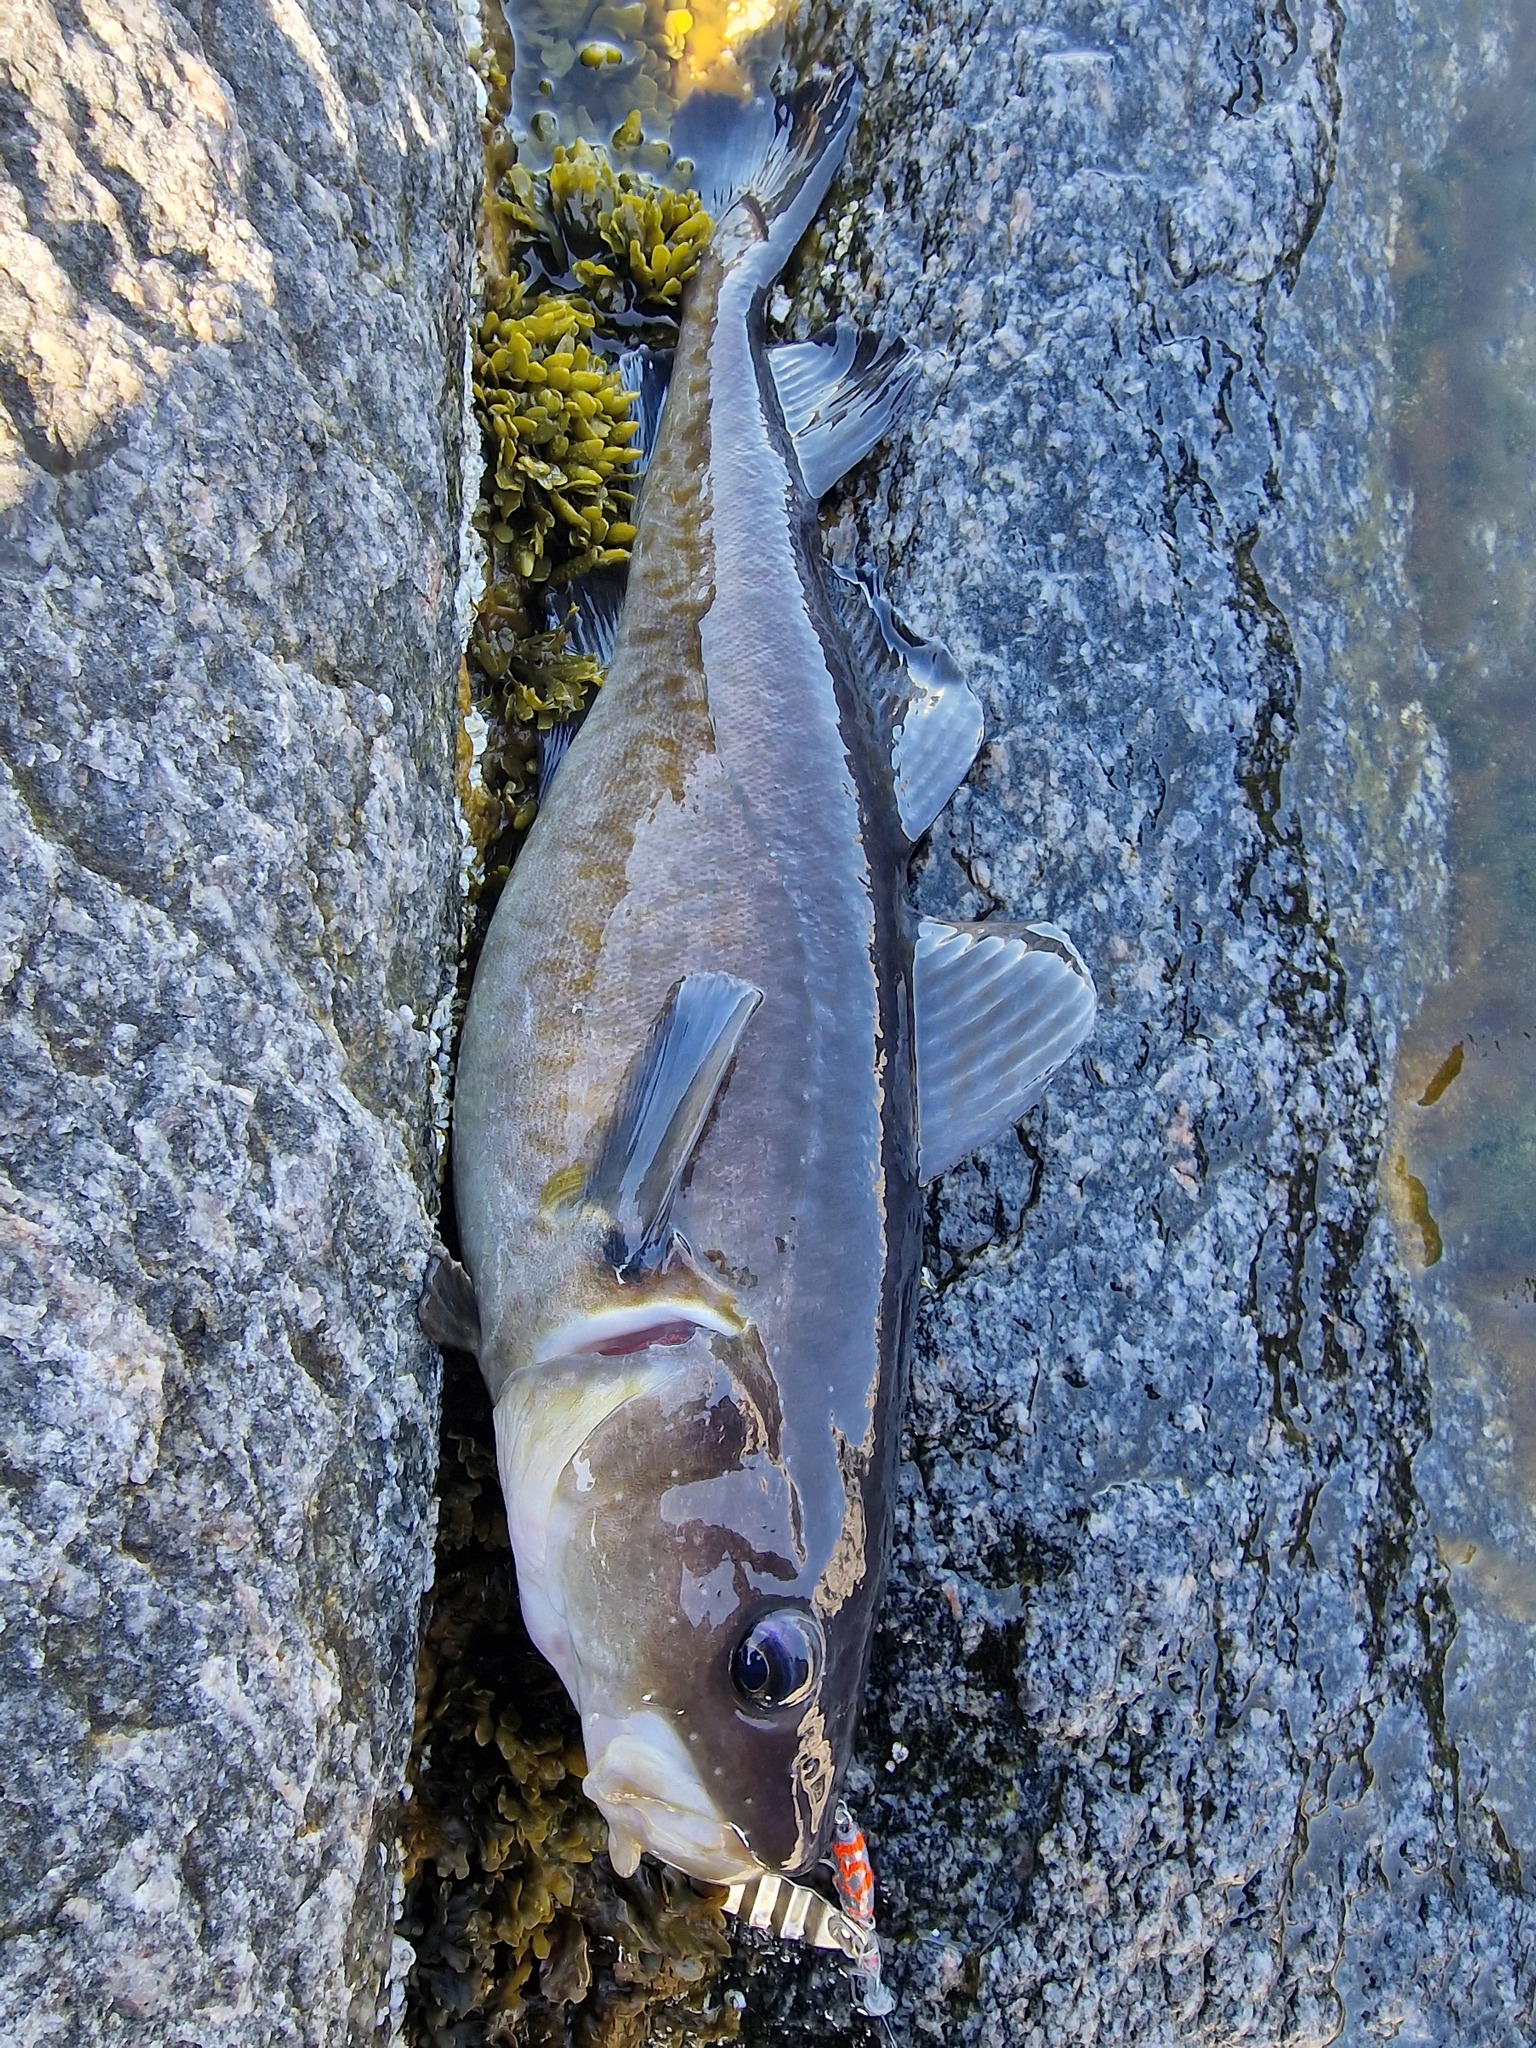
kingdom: Animalia
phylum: Chordata
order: Gadiformes
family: Gadidae
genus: Gadus
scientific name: Gadus macrocephalus
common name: Pacific cod
